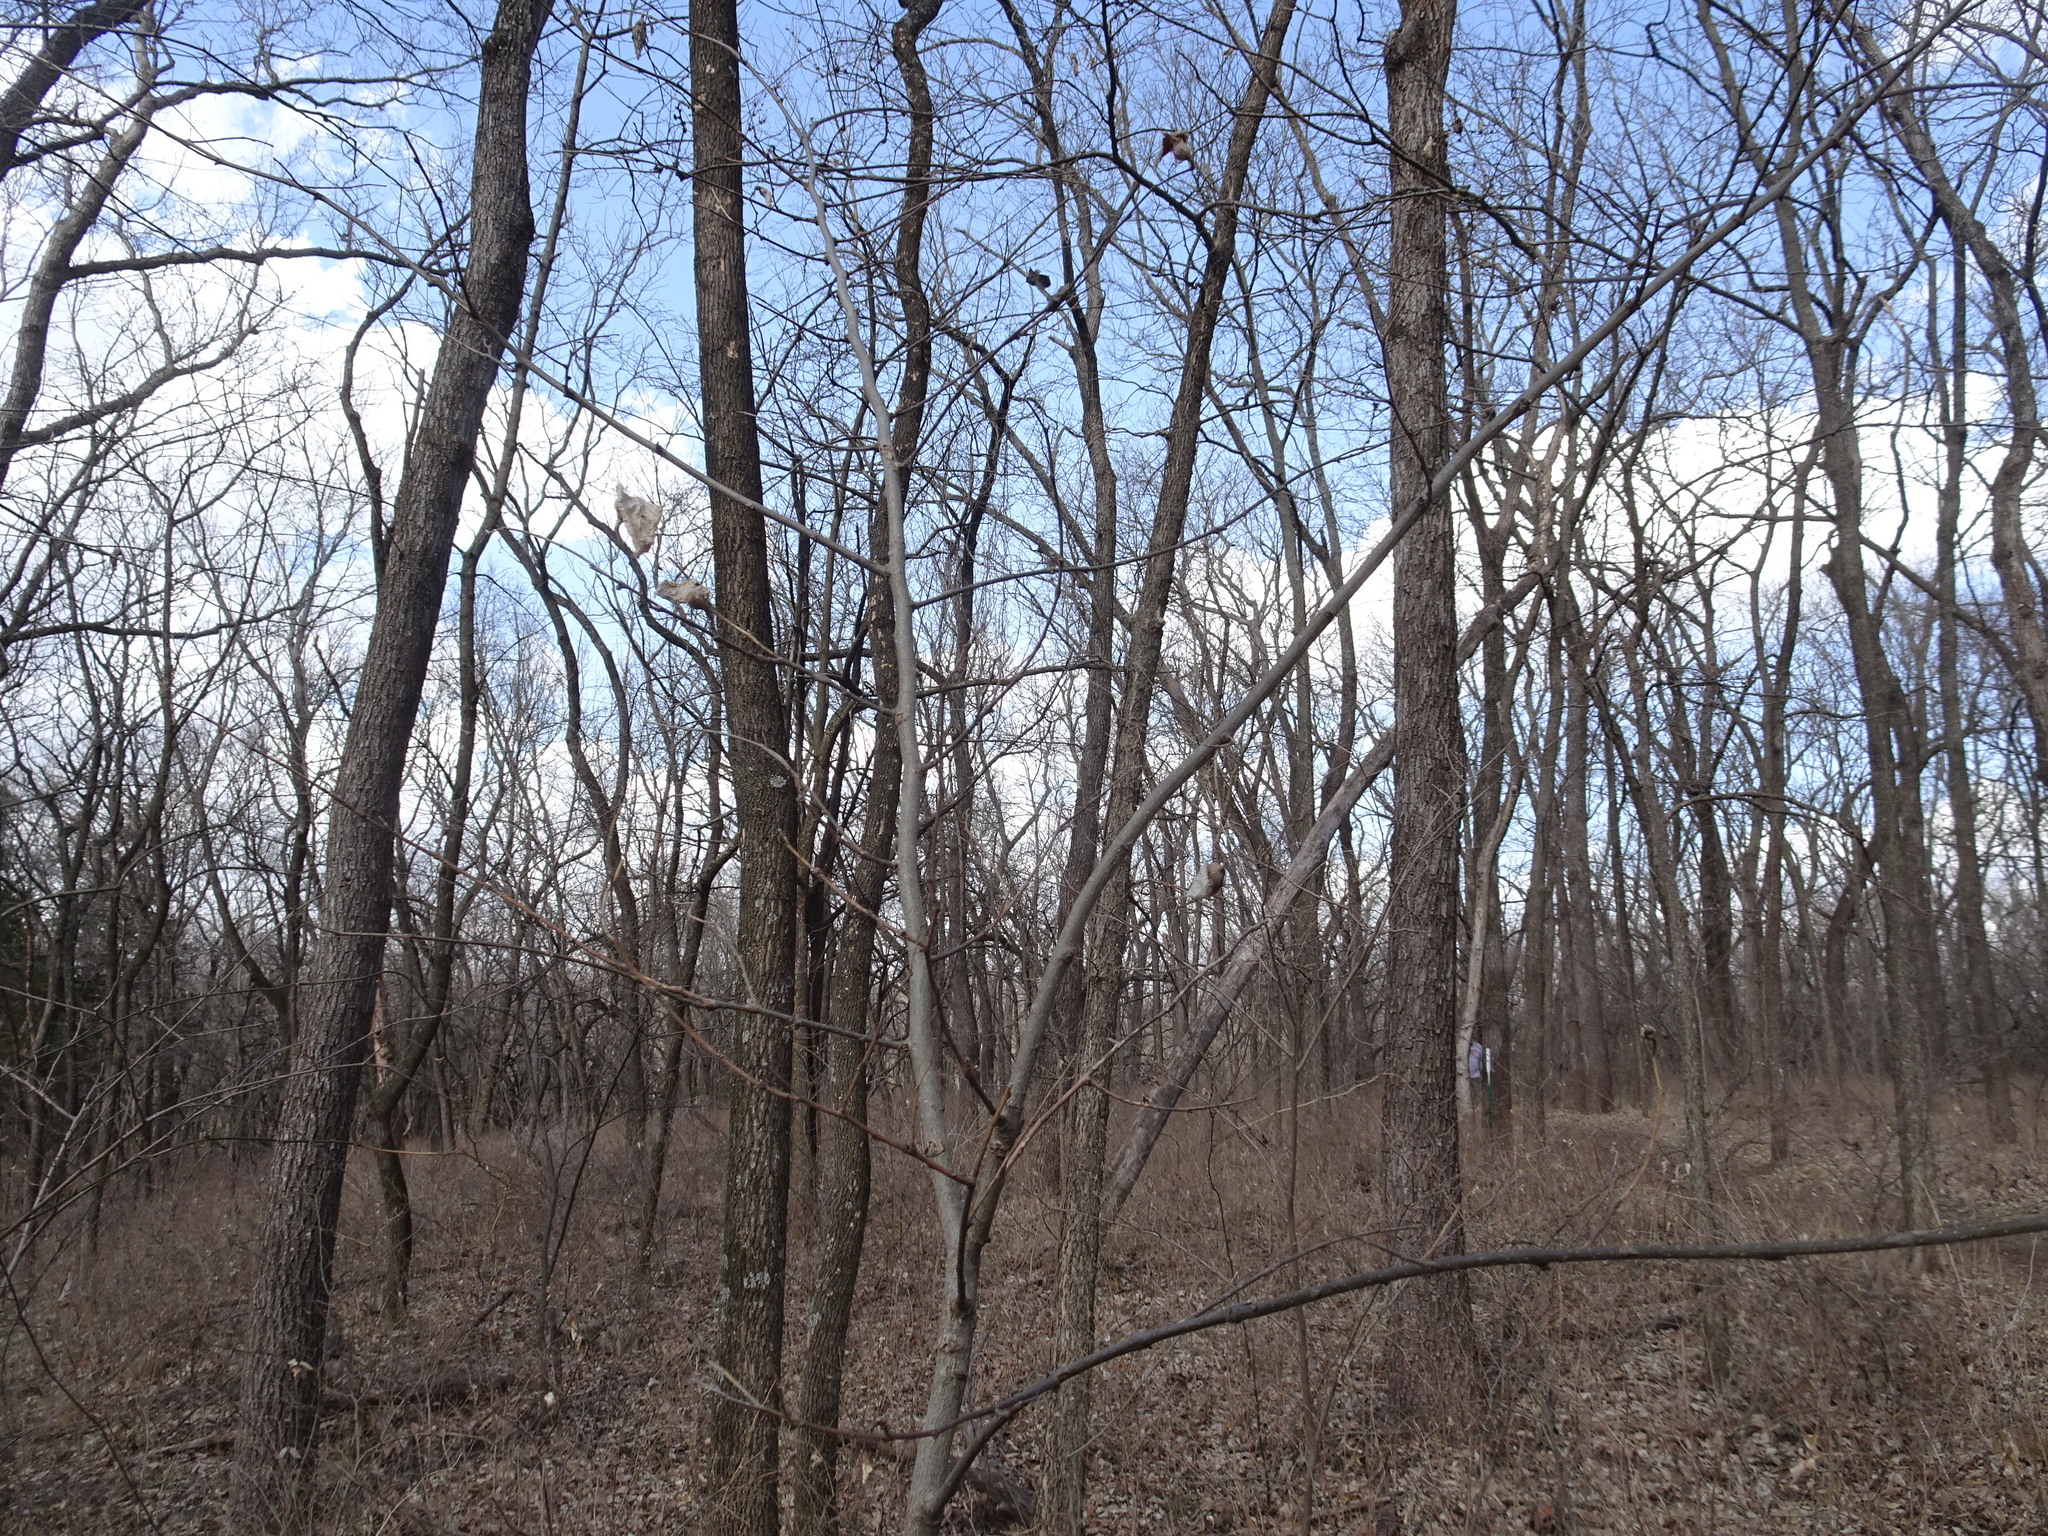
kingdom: Animalia
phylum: Arthropoda
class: Insecta
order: Hemiptera
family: Aphalaridae
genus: Pachypsylla
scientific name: Pachypsylla venusta
